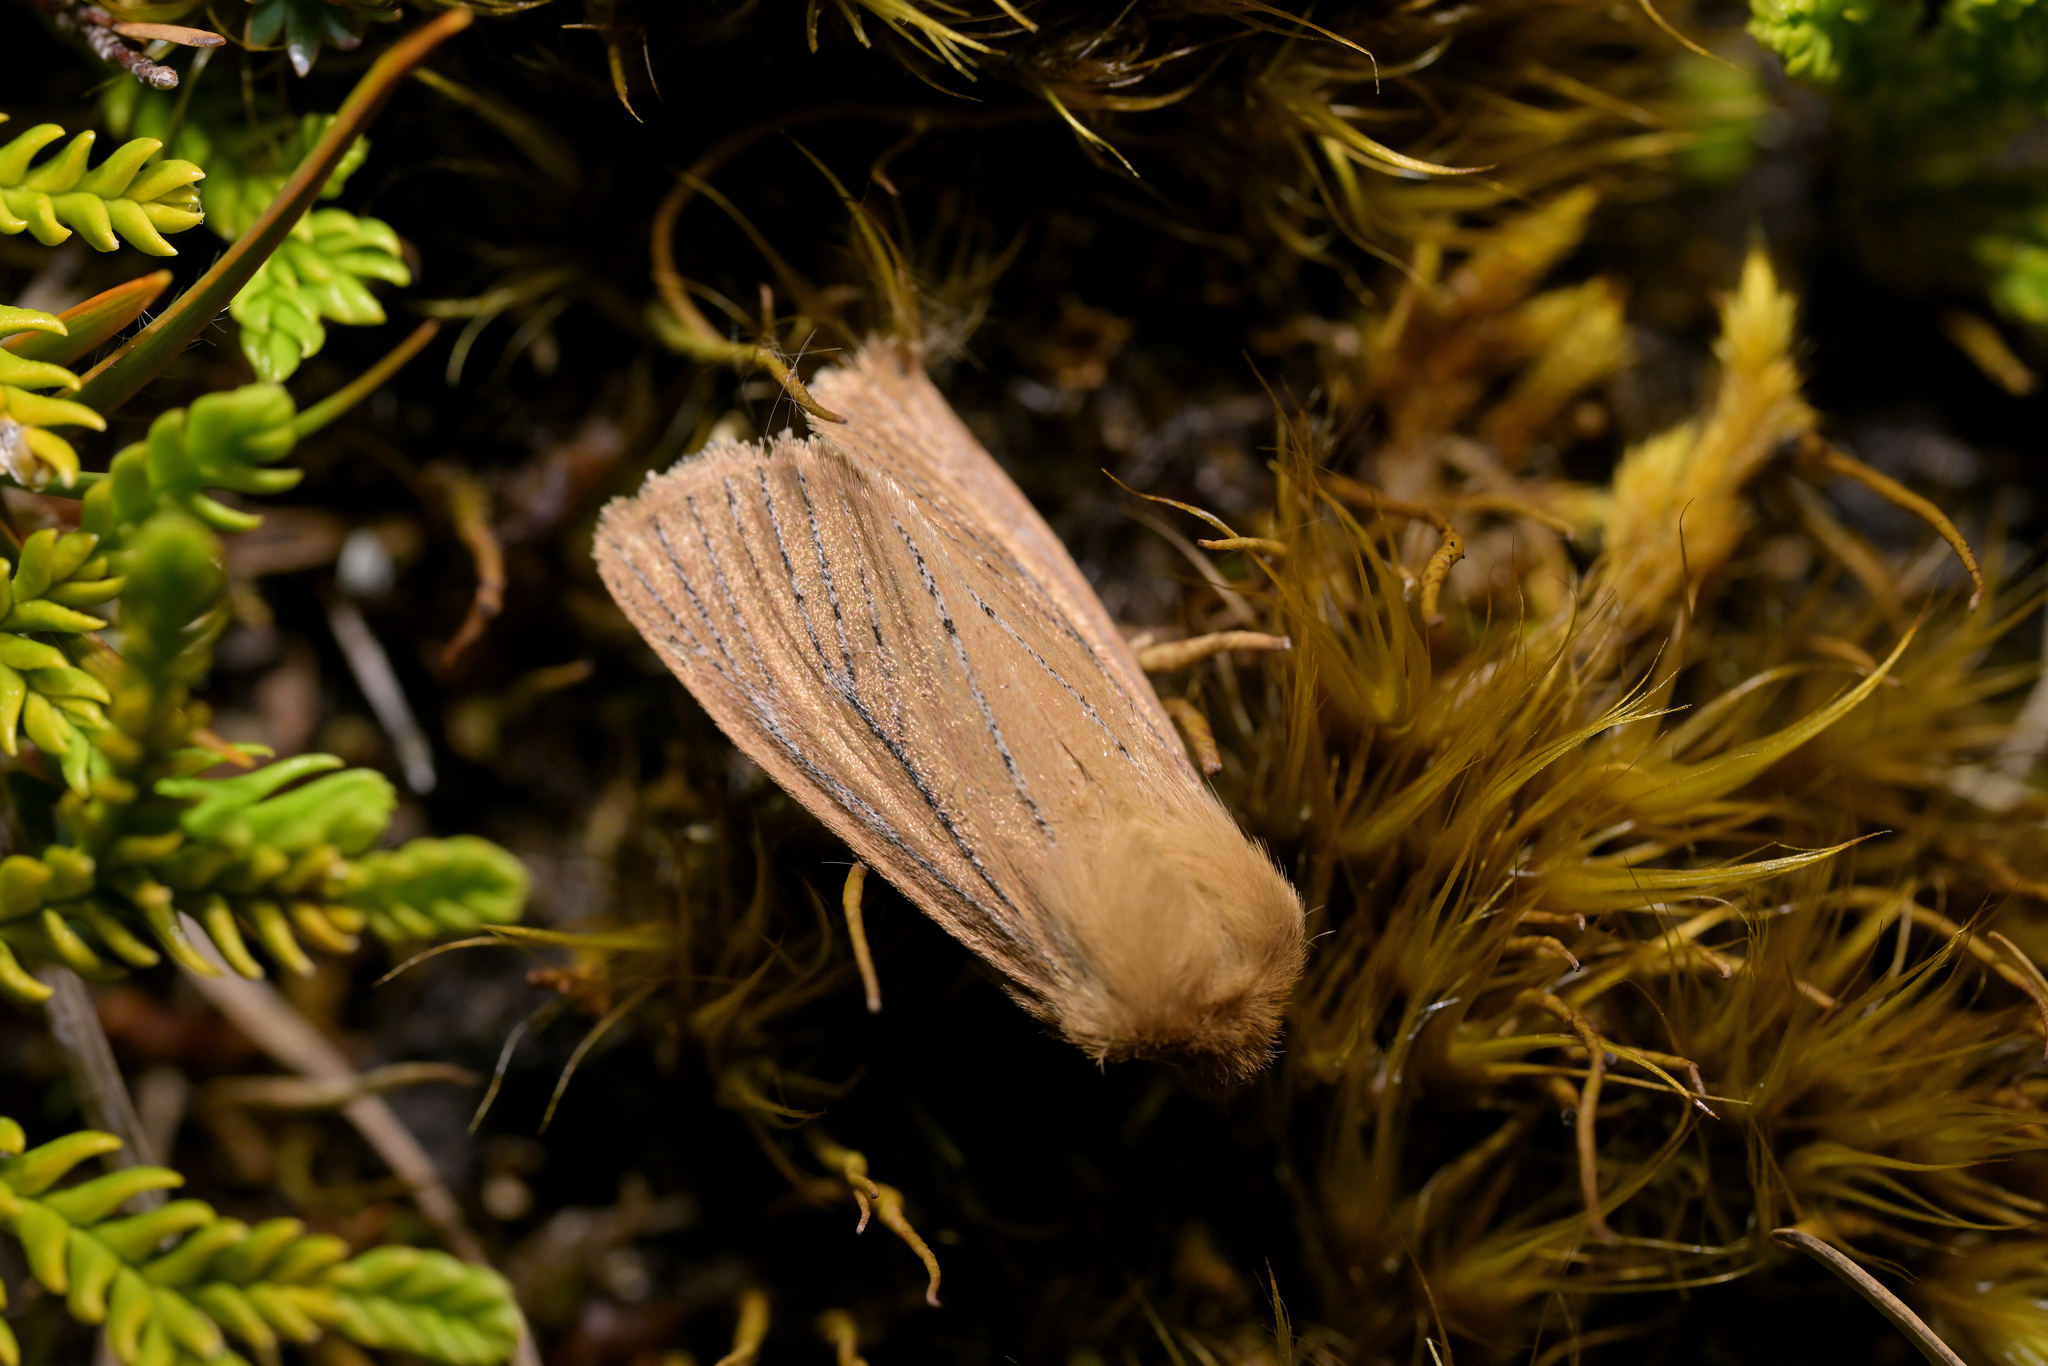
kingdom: Animalia
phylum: Arthropoda
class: Insecta
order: Lepidoptera
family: Noctuidae
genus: Ichneutica
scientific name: Ichneutica
